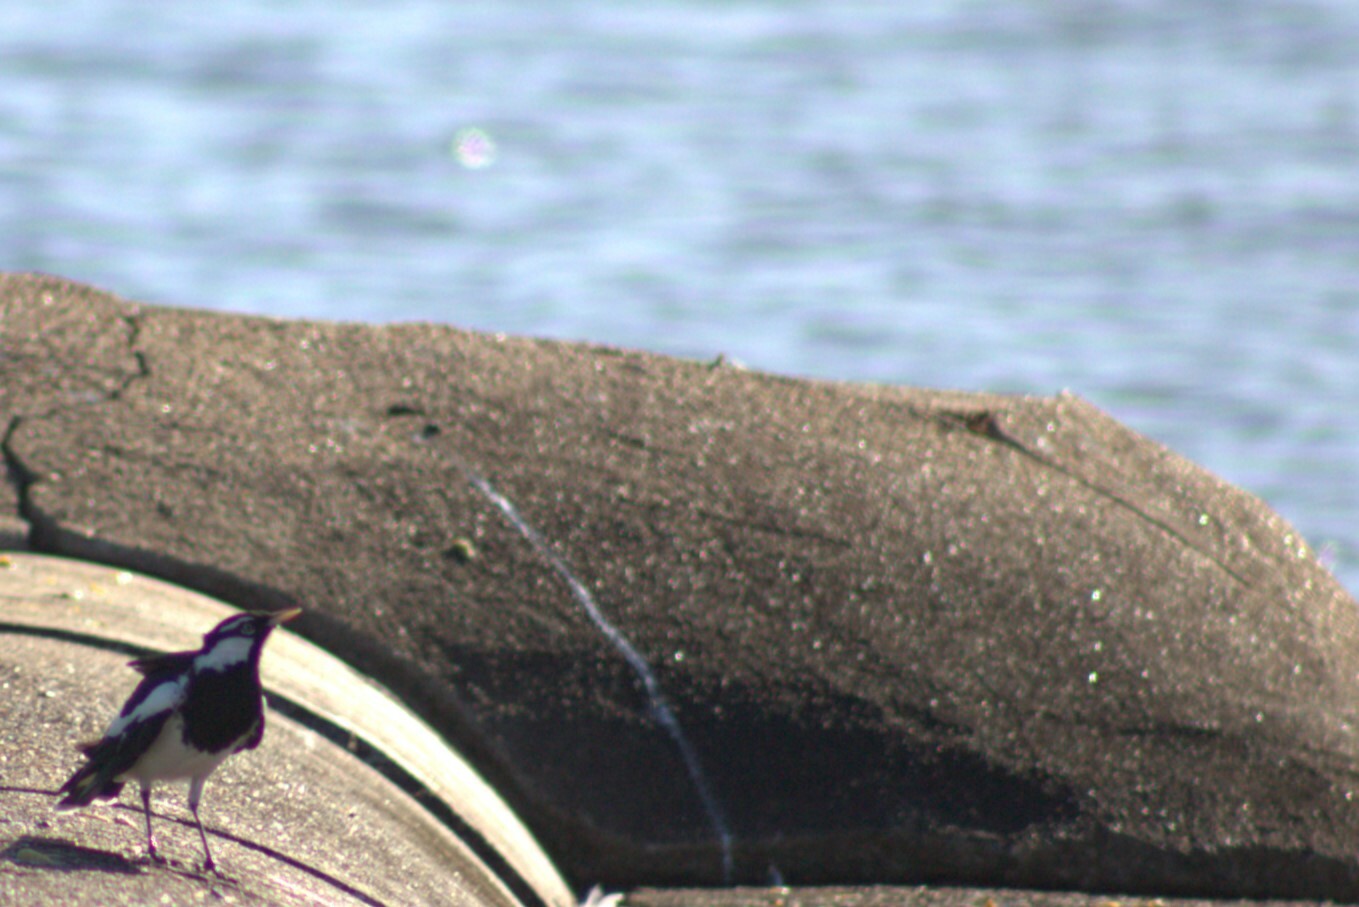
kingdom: Animalia
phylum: Chordata
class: Aves
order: Passeriformes
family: Monarchidae
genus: Grallina
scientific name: Grallina cyanoleuca
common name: Magpie-lark
